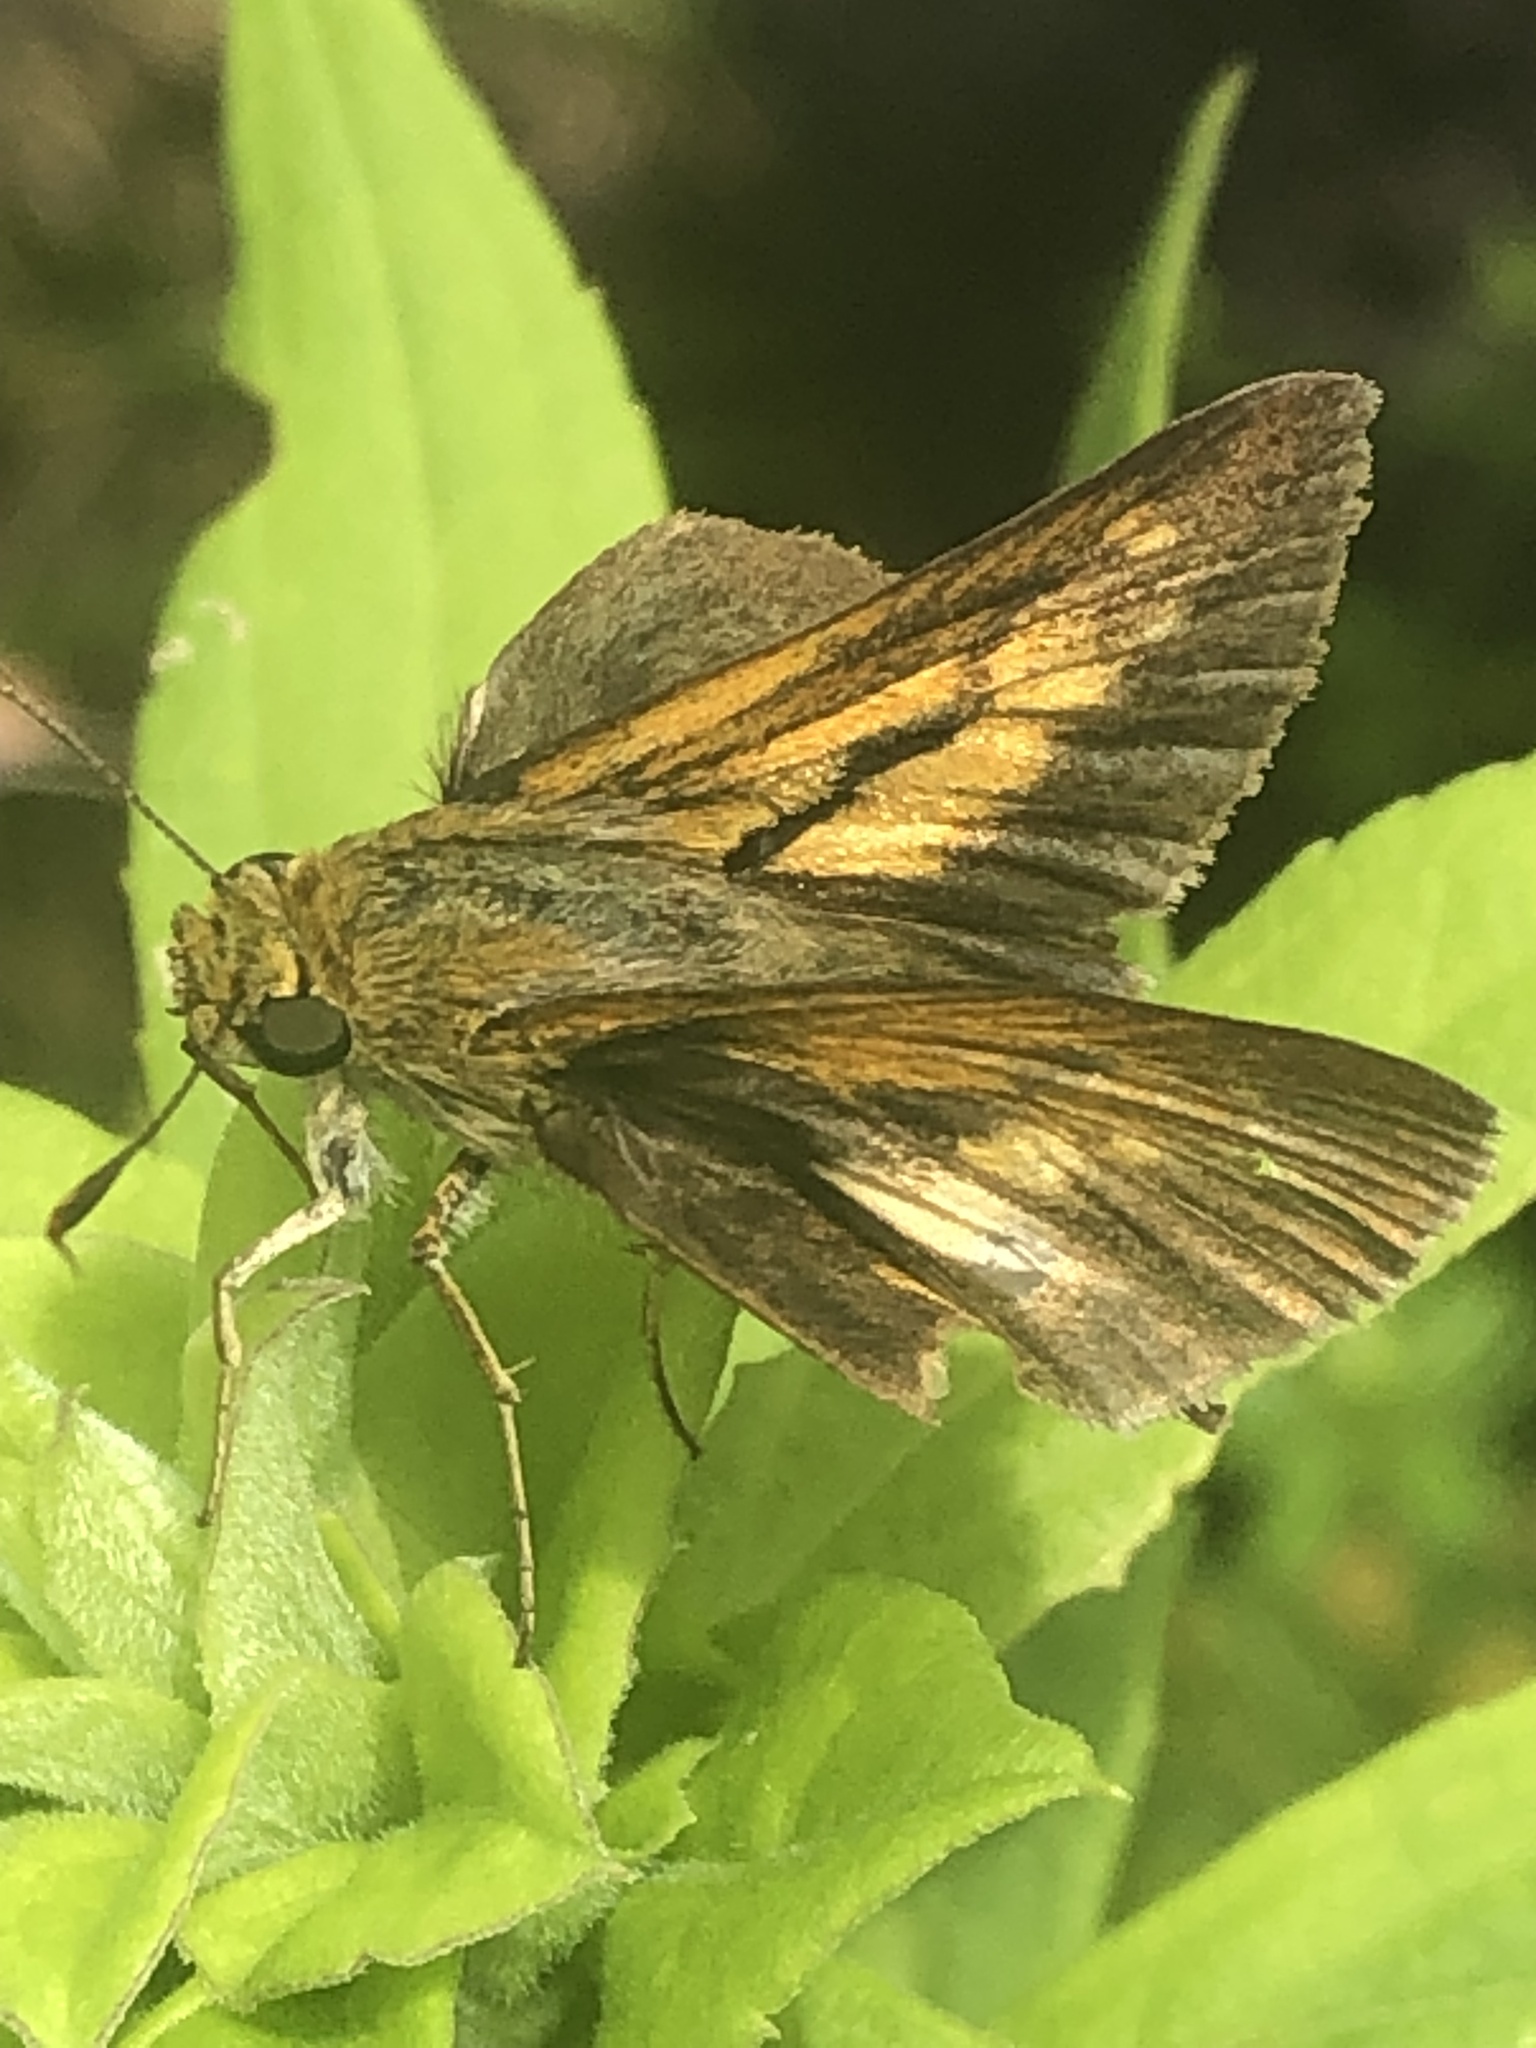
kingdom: Animalia
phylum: Arthropoda
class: Insecta
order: Lepidoptera
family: Hesperiidae
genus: Euphyes
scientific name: Euphyes dion
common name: Dion skipper
